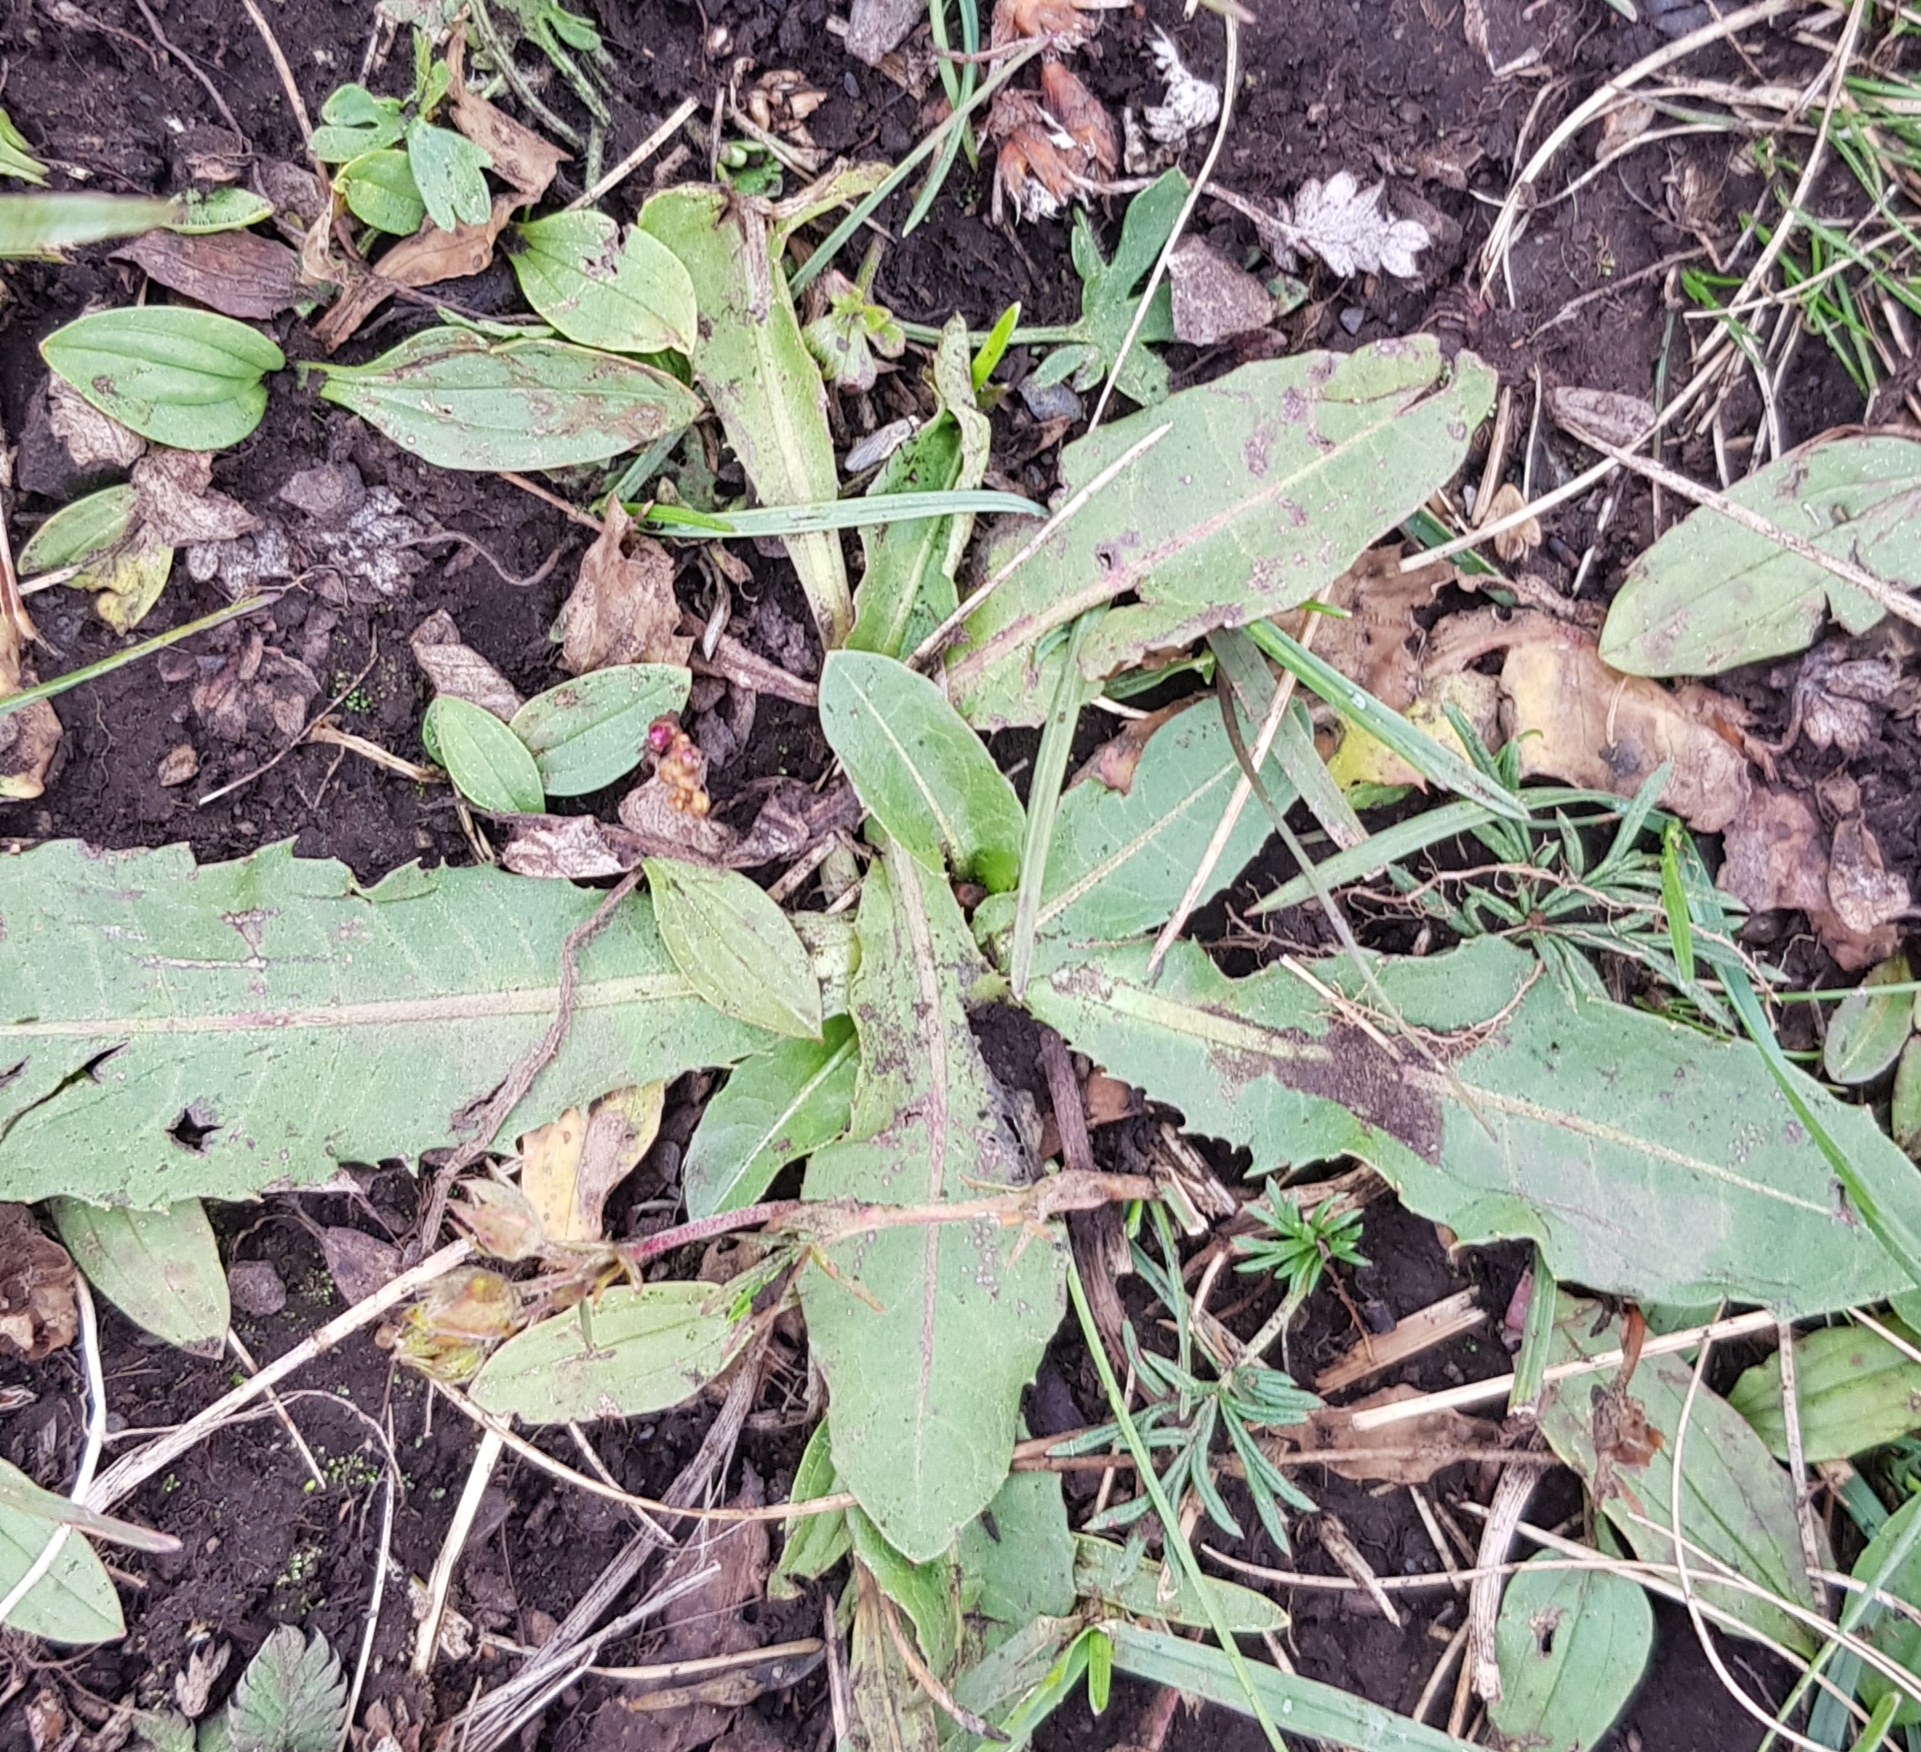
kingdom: Plantae
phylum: Tracheophyta
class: Magnoliopsida
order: Asterales
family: Asteraceae
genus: Trommsdorffia
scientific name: Trommsdorffia maculata
